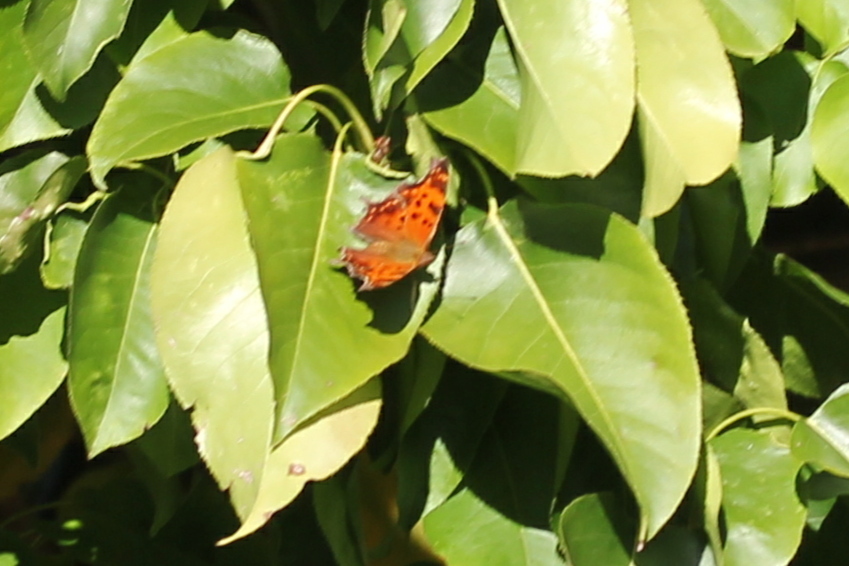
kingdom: Animalia
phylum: Arthropoda
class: Insecta
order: Lepidoptera
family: Nymphalidae
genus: Polygonia
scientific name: Polygonia comma
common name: Eastern comma
